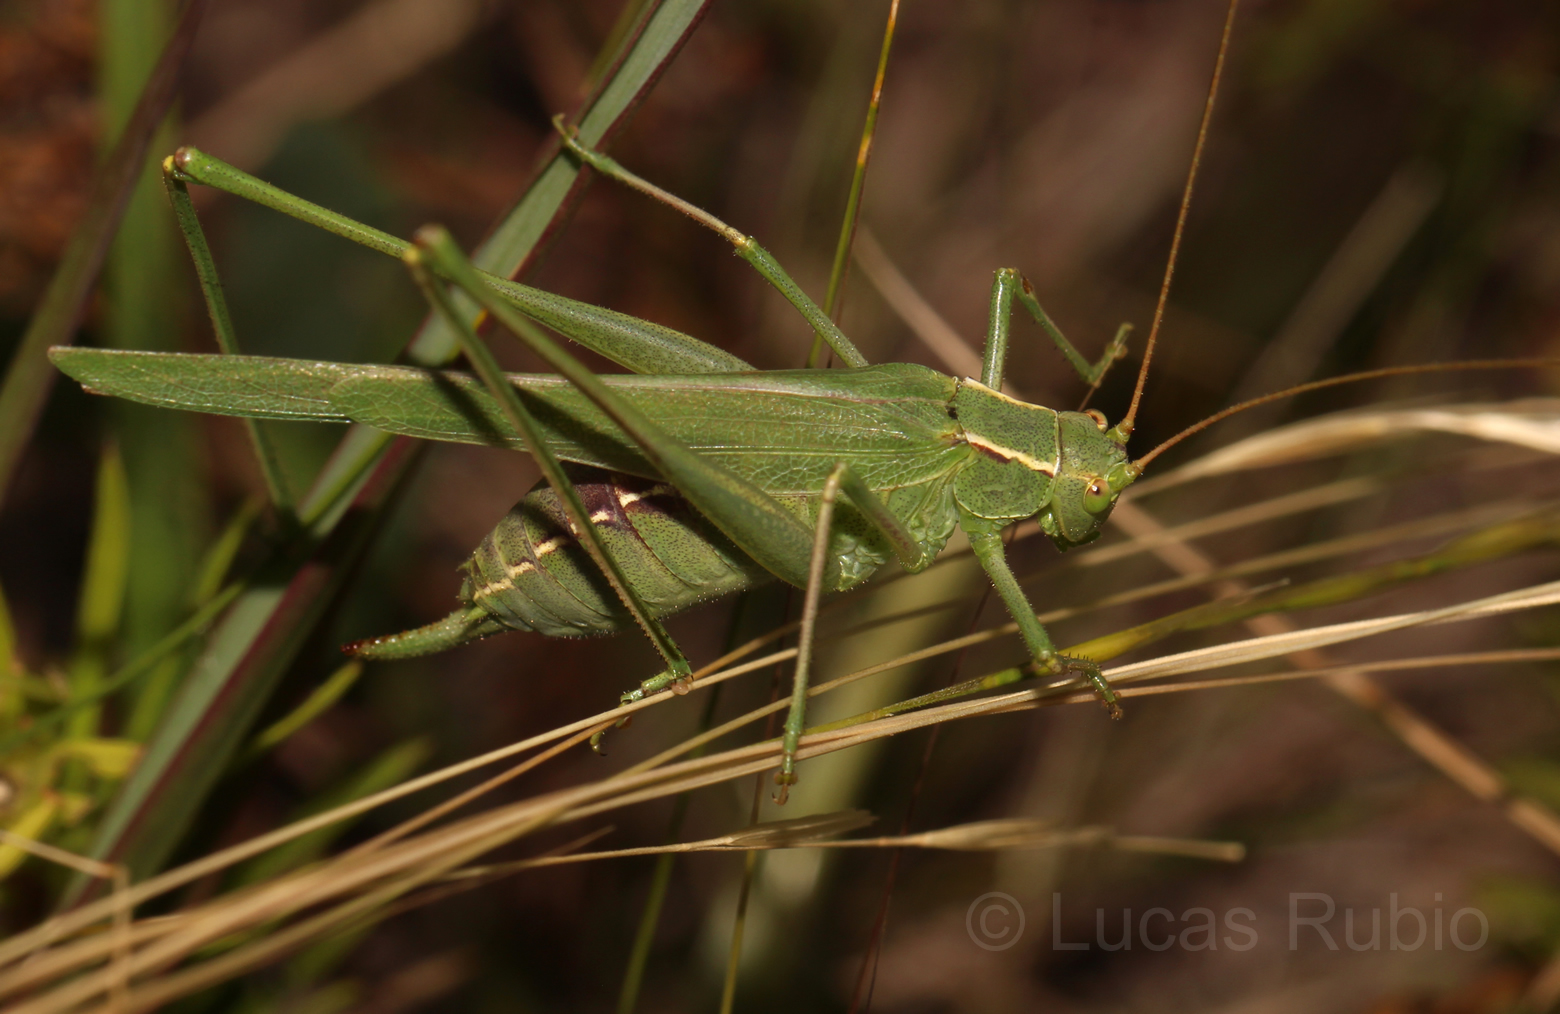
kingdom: Animalia
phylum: Arthropoda
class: Insecta
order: Orthoptera
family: Tettigoniidae
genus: Burgilis
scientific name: Burgilis curta
